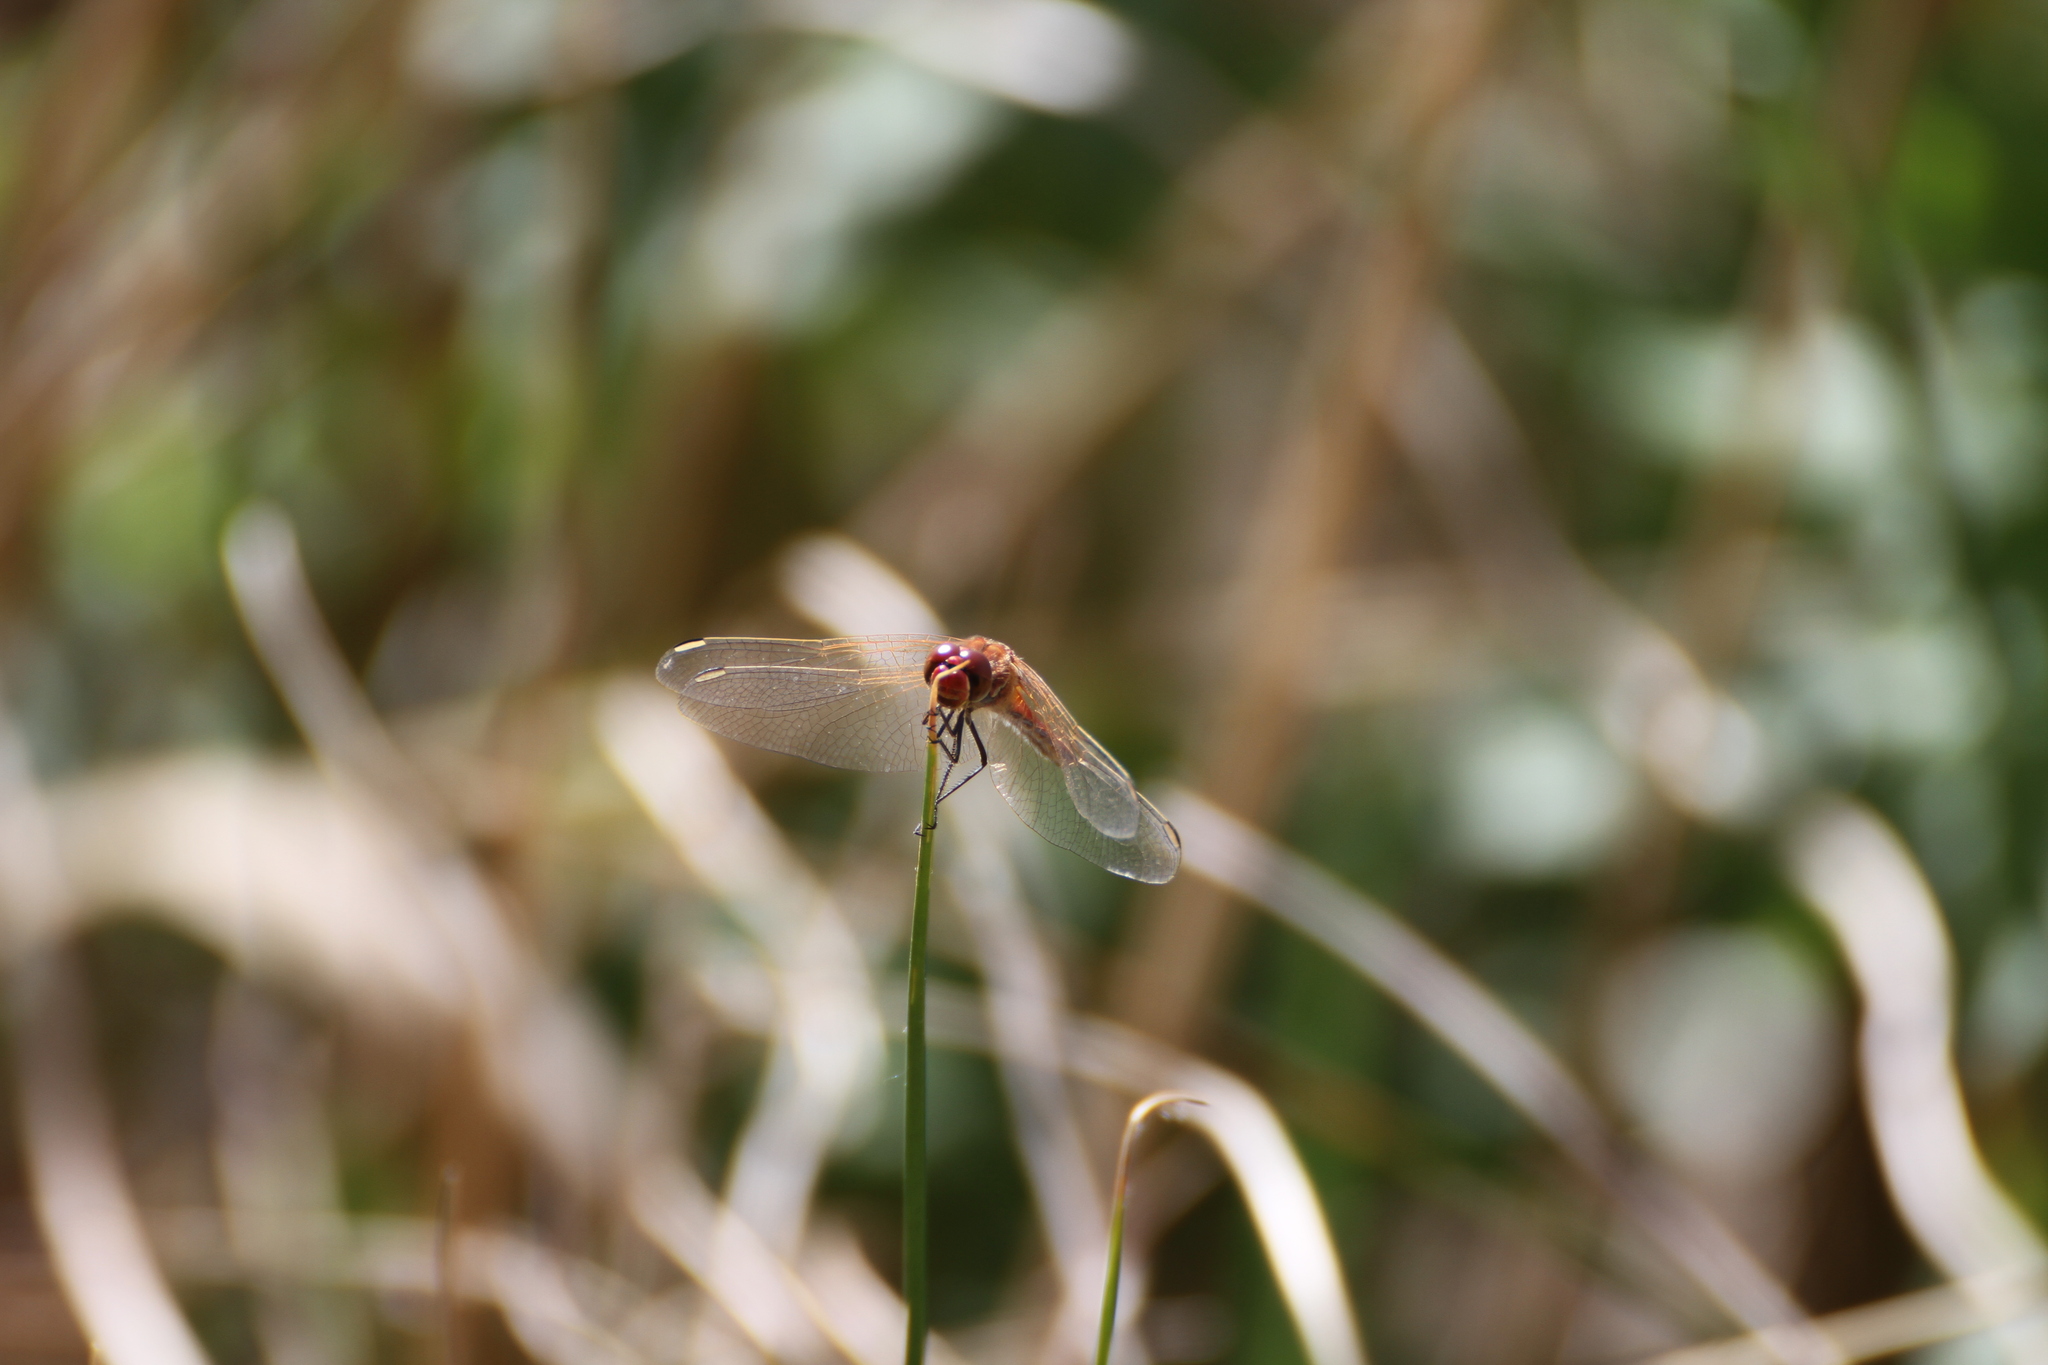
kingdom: Animalia
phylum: Arthropoda
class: Insecta
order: Odonata
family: Libellulidae
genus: Sympetrum
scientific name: Sympetrum fonscolombii
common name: Red-veined darter
